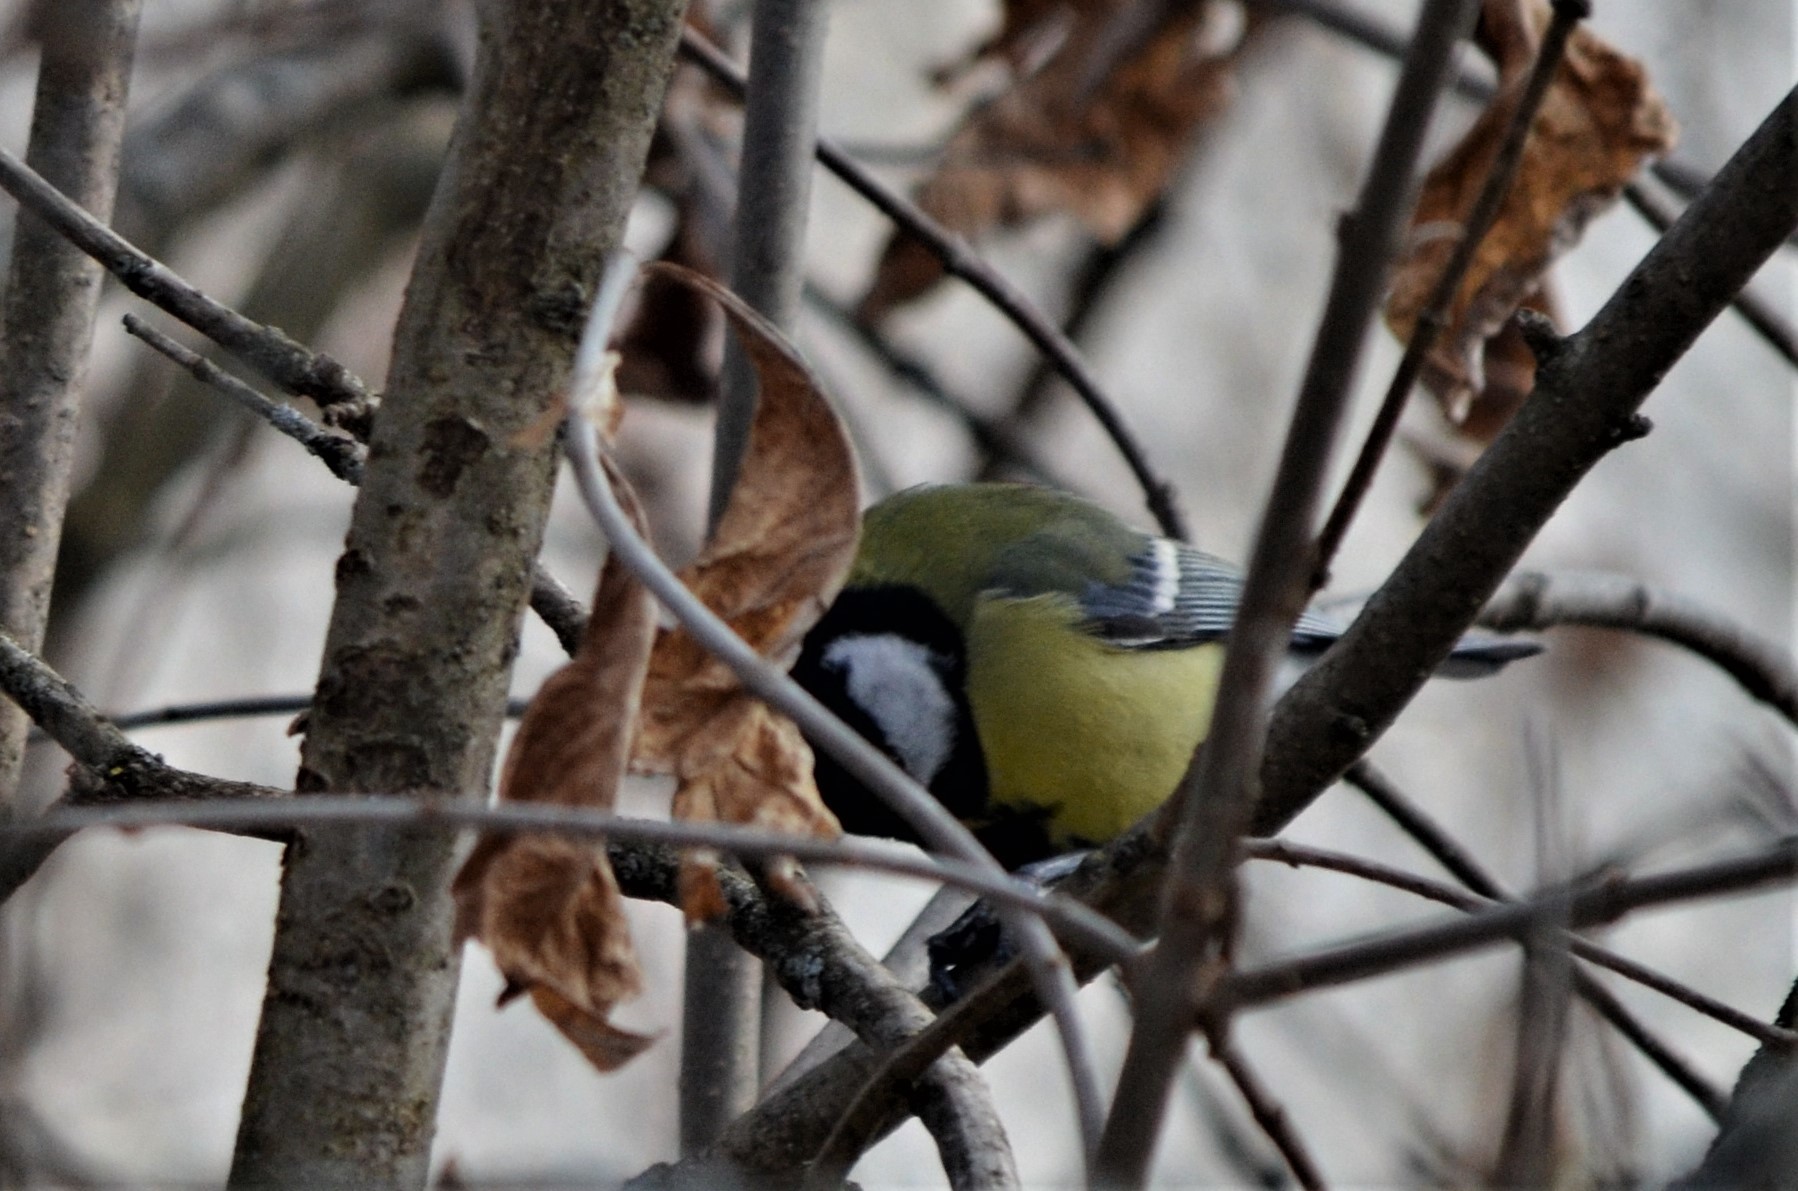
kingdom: Animalia
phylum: Chordata
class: Aves
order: Passeriformes
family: Paridae
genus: Parus
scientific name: Parus major
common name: Great tit
